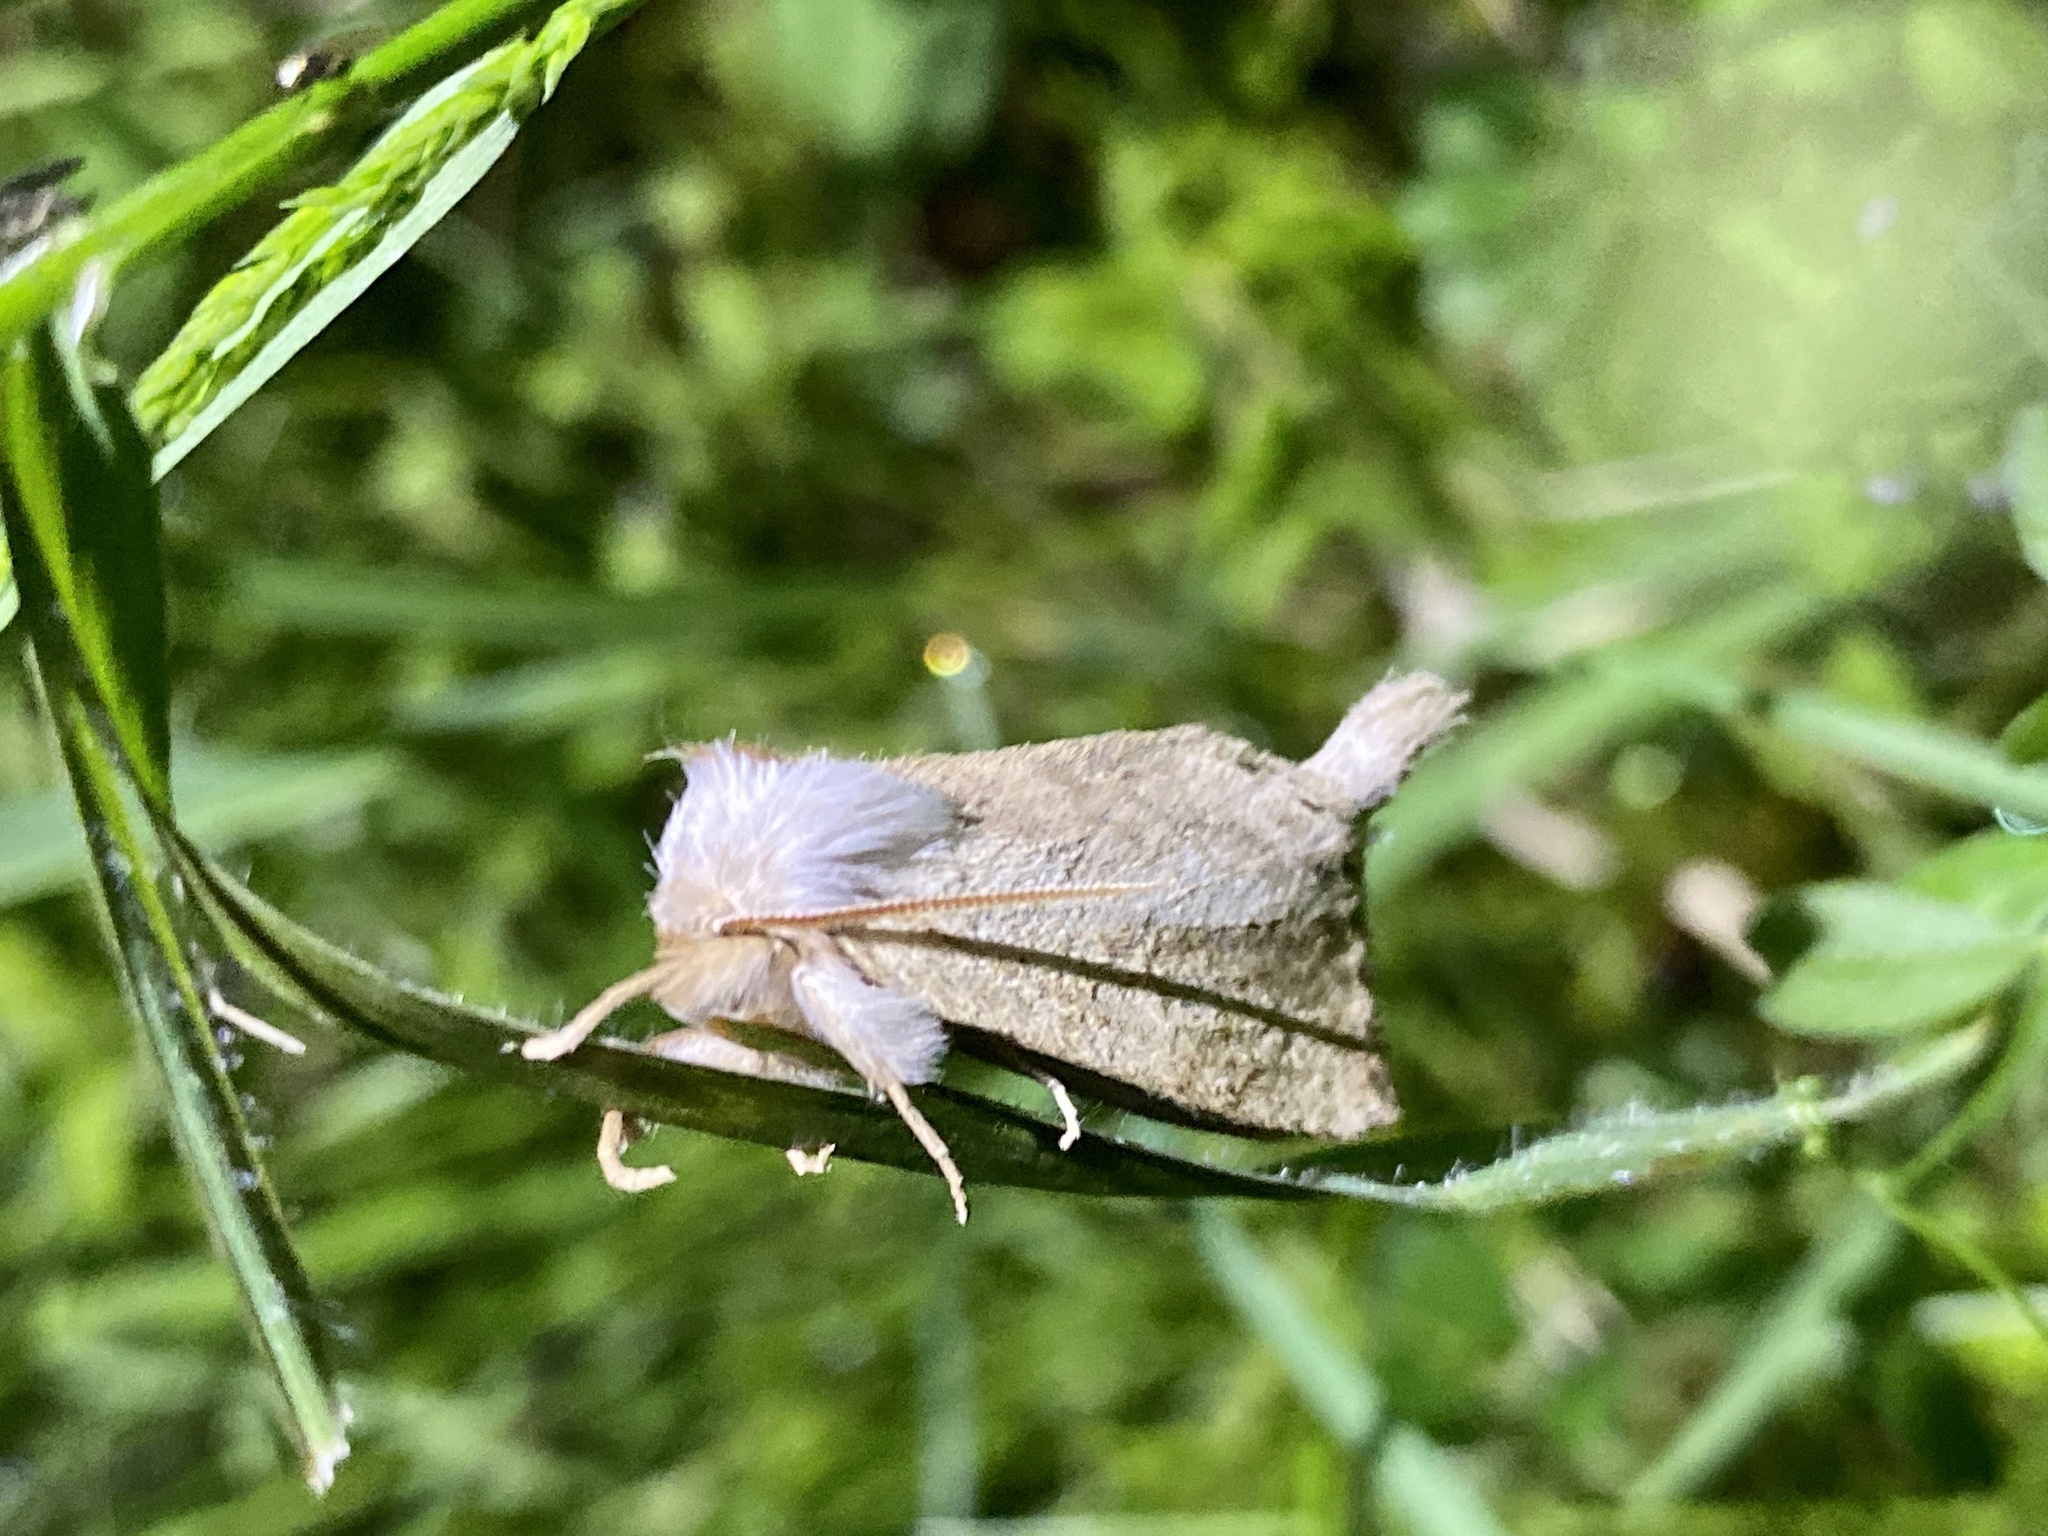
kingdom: Animalia
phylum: Arthropoda
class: Insecta
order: Lepidoptera
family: Notodontidae
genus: Mimopydna
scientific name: Mimopydna pallida
